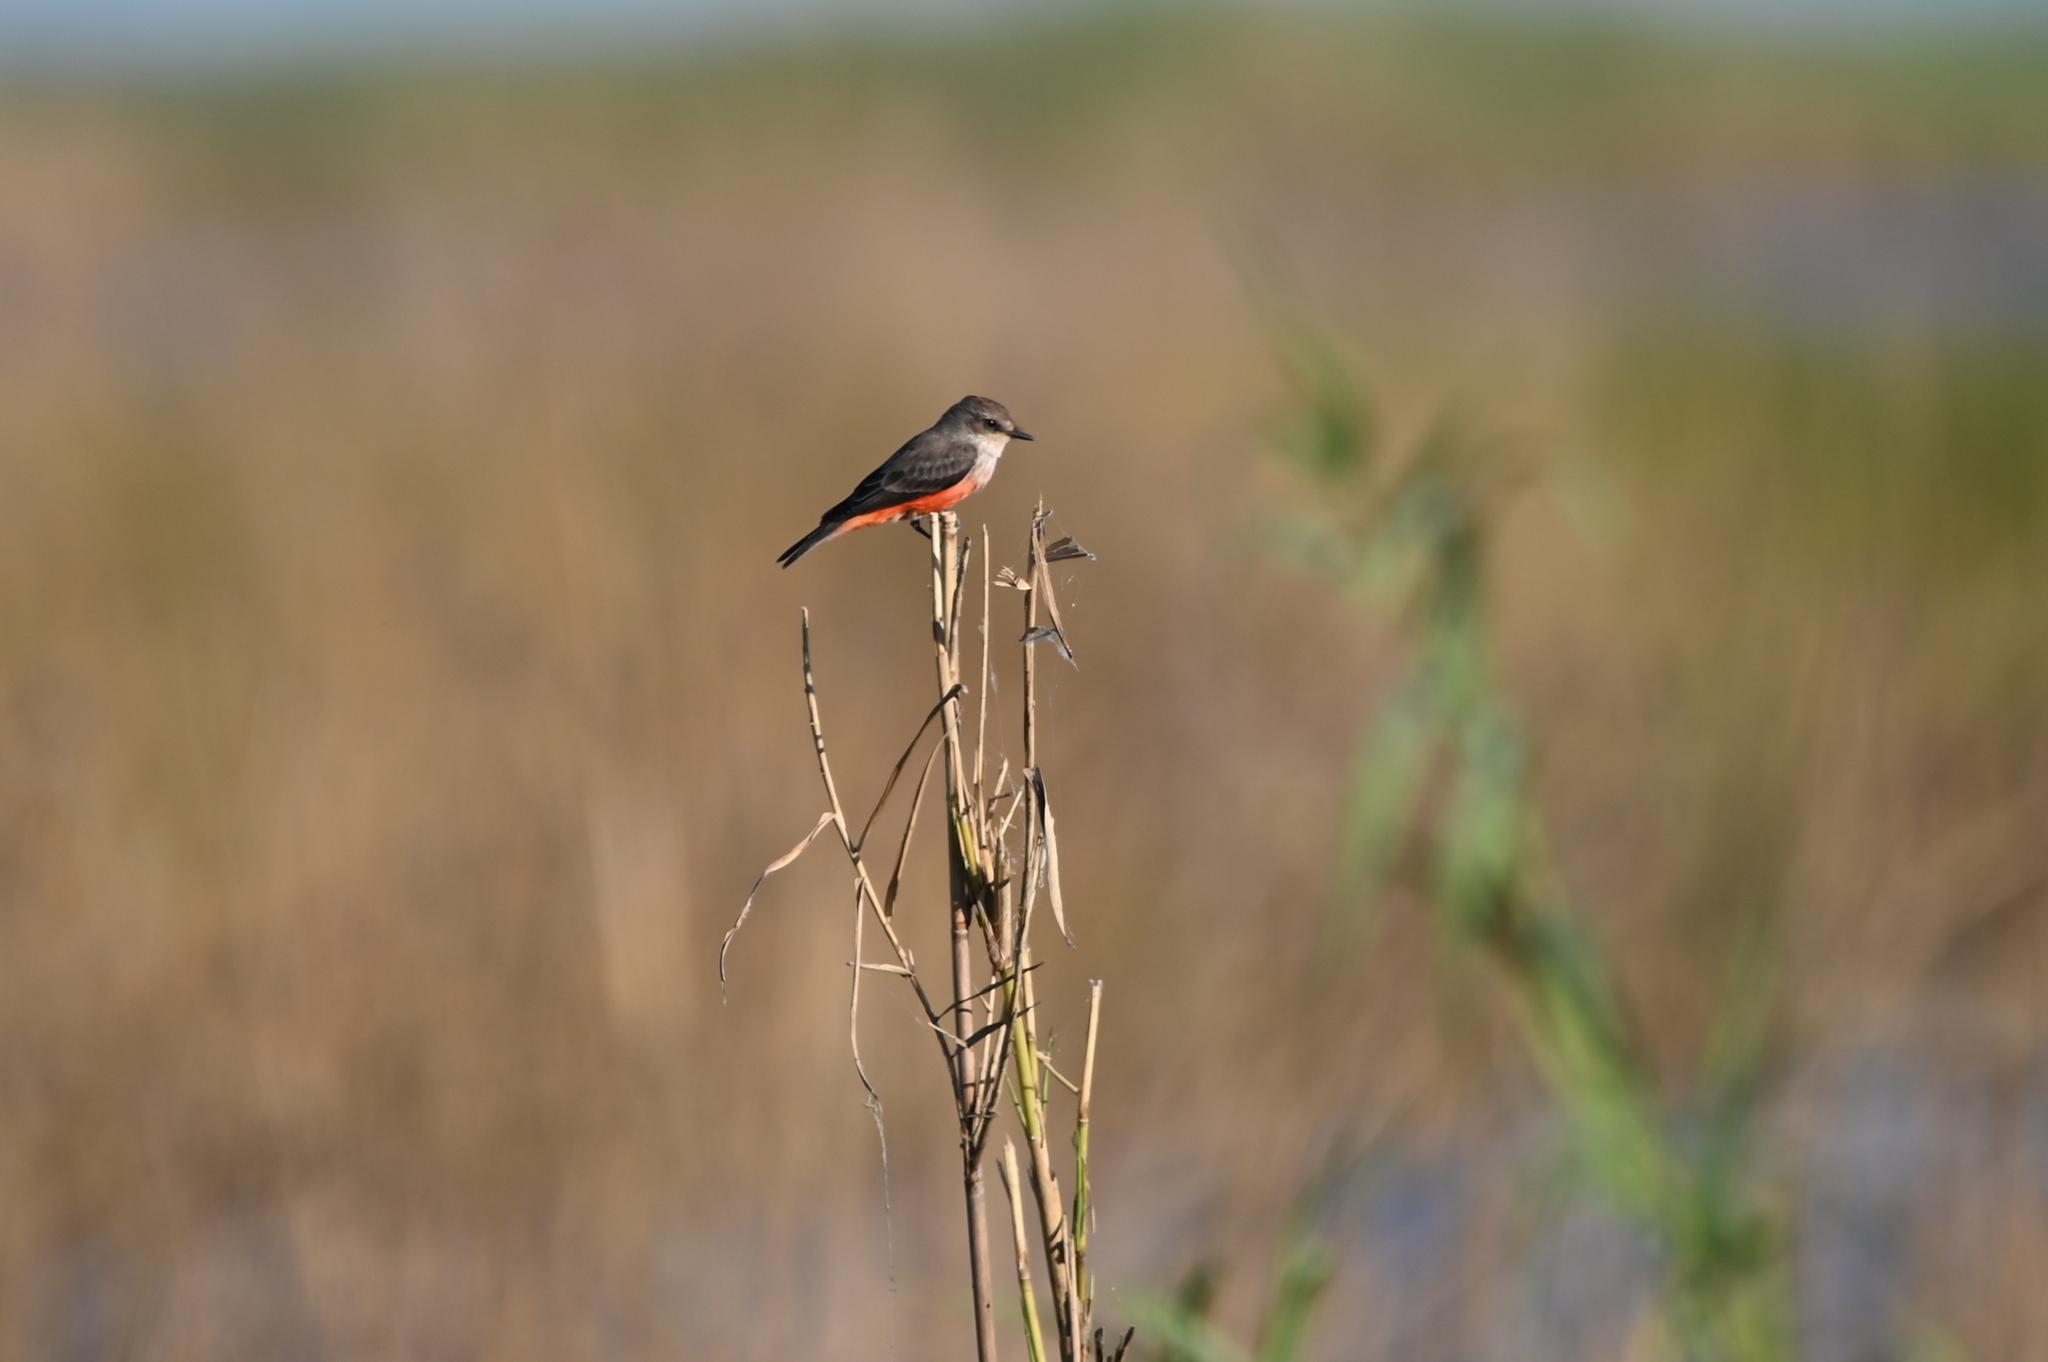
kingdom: Animalia
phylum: Chordata
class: Aves
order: Passeriformes
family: Tyrannidae
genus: Pyrocephalus
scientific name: Pyrocephalus rubinus
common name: Vermilion flycatcher
